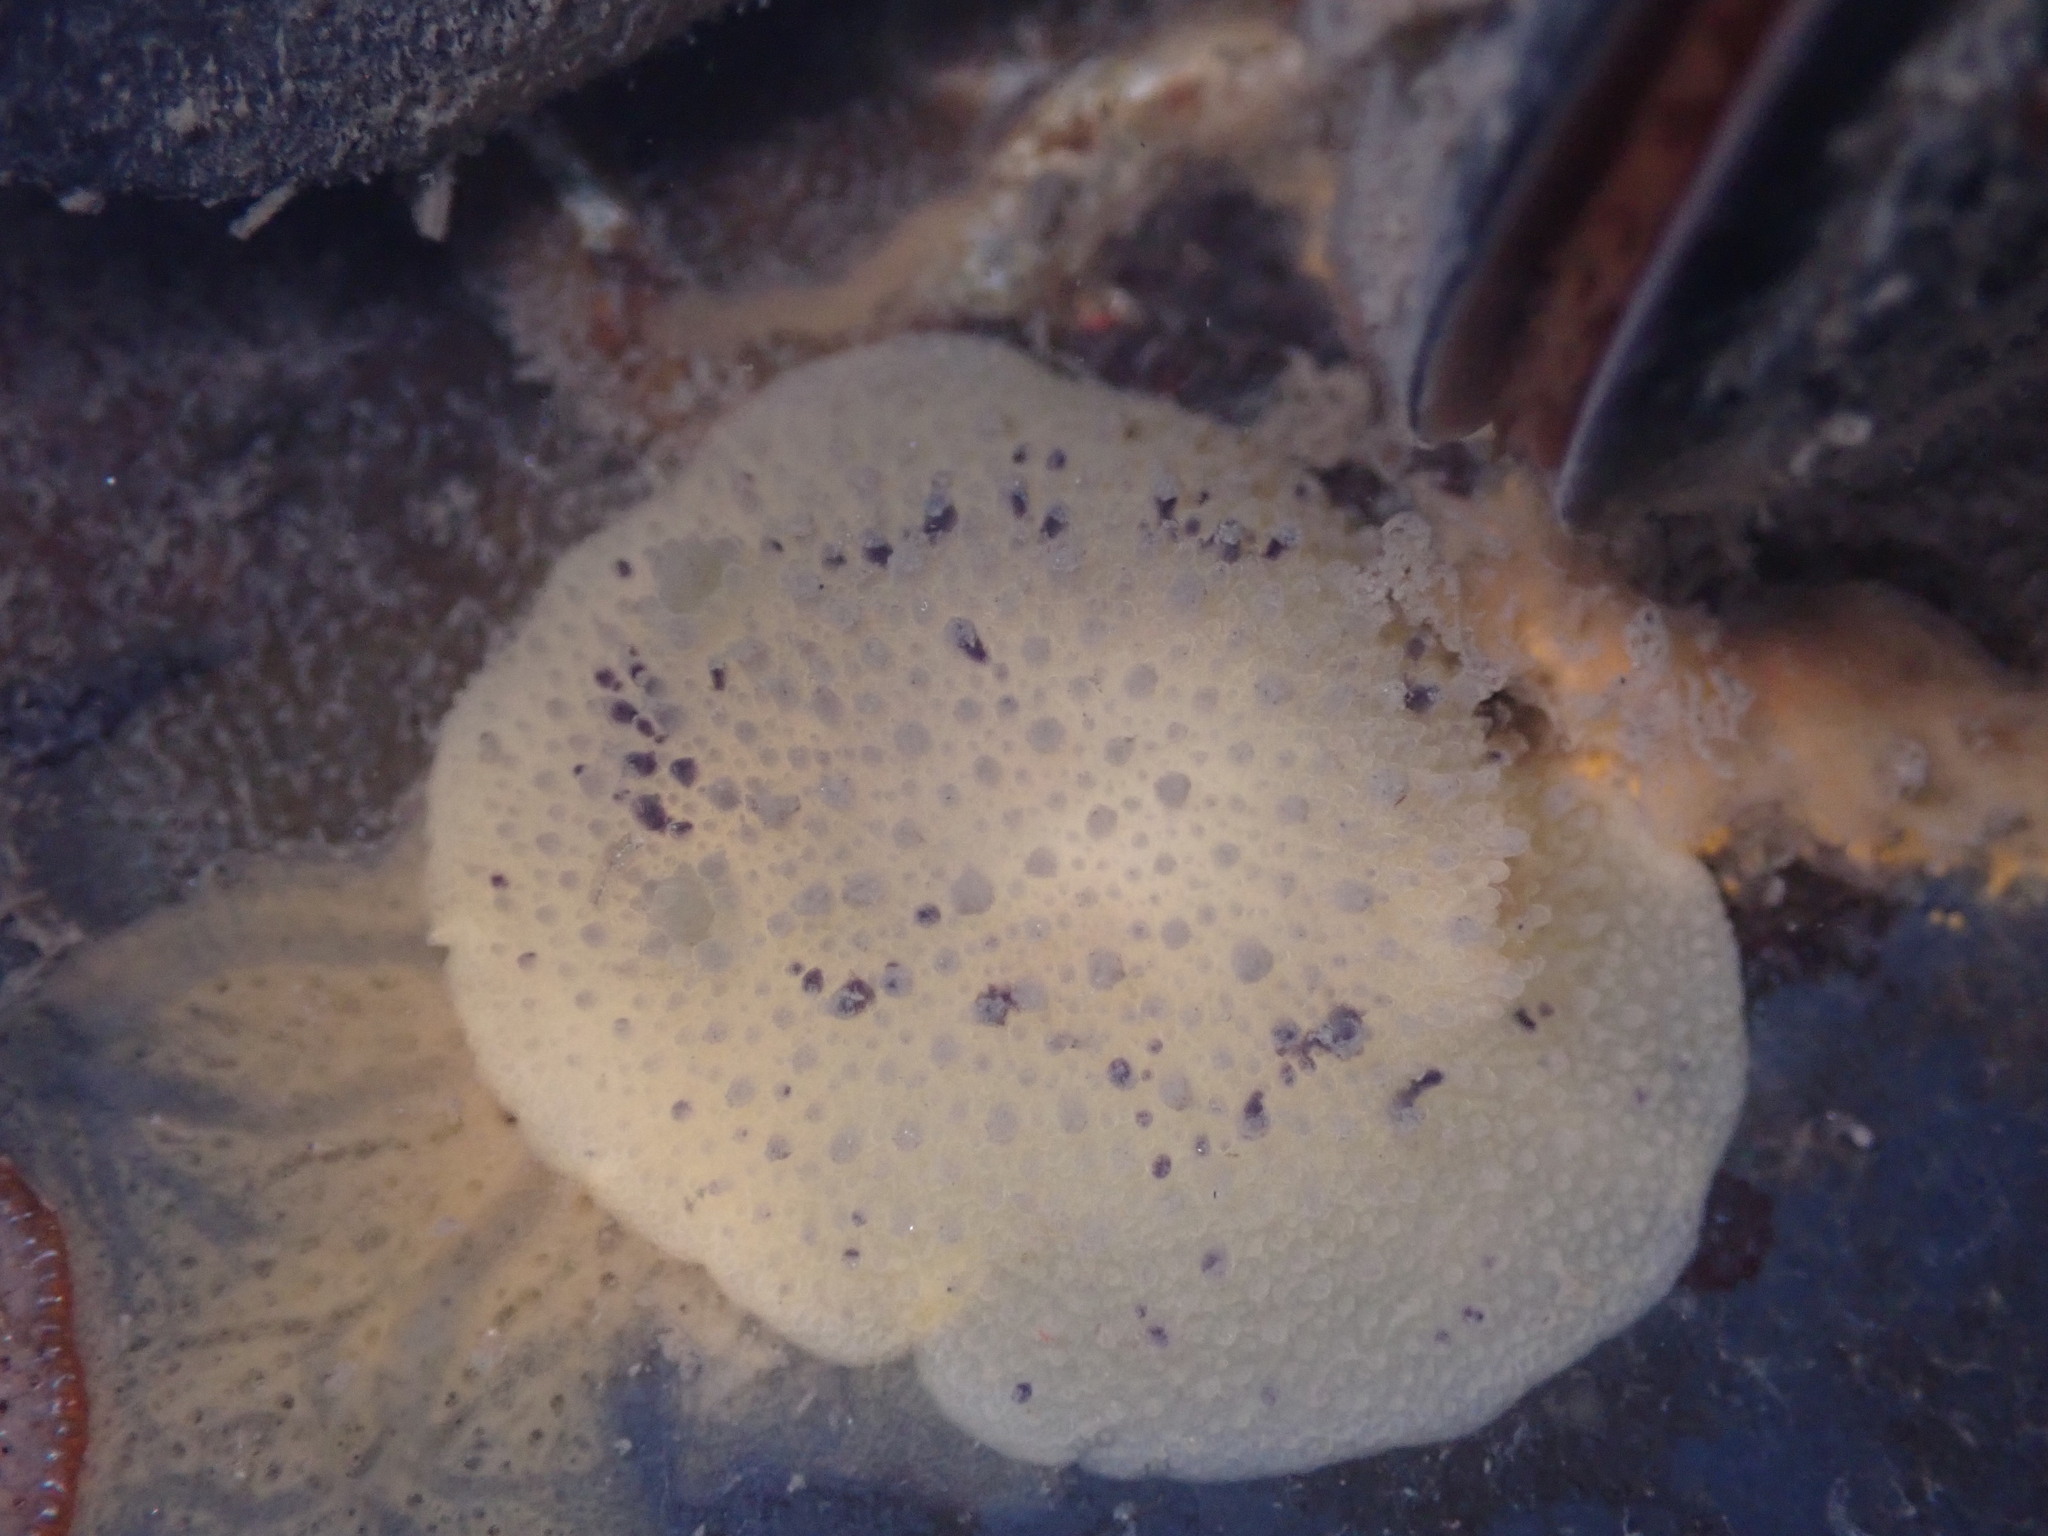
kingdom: Animalia
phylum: Mollusca
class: Gastropoda
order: Nudibranchia
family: Dorididae
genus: Doris
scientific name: Doris montereyensis
